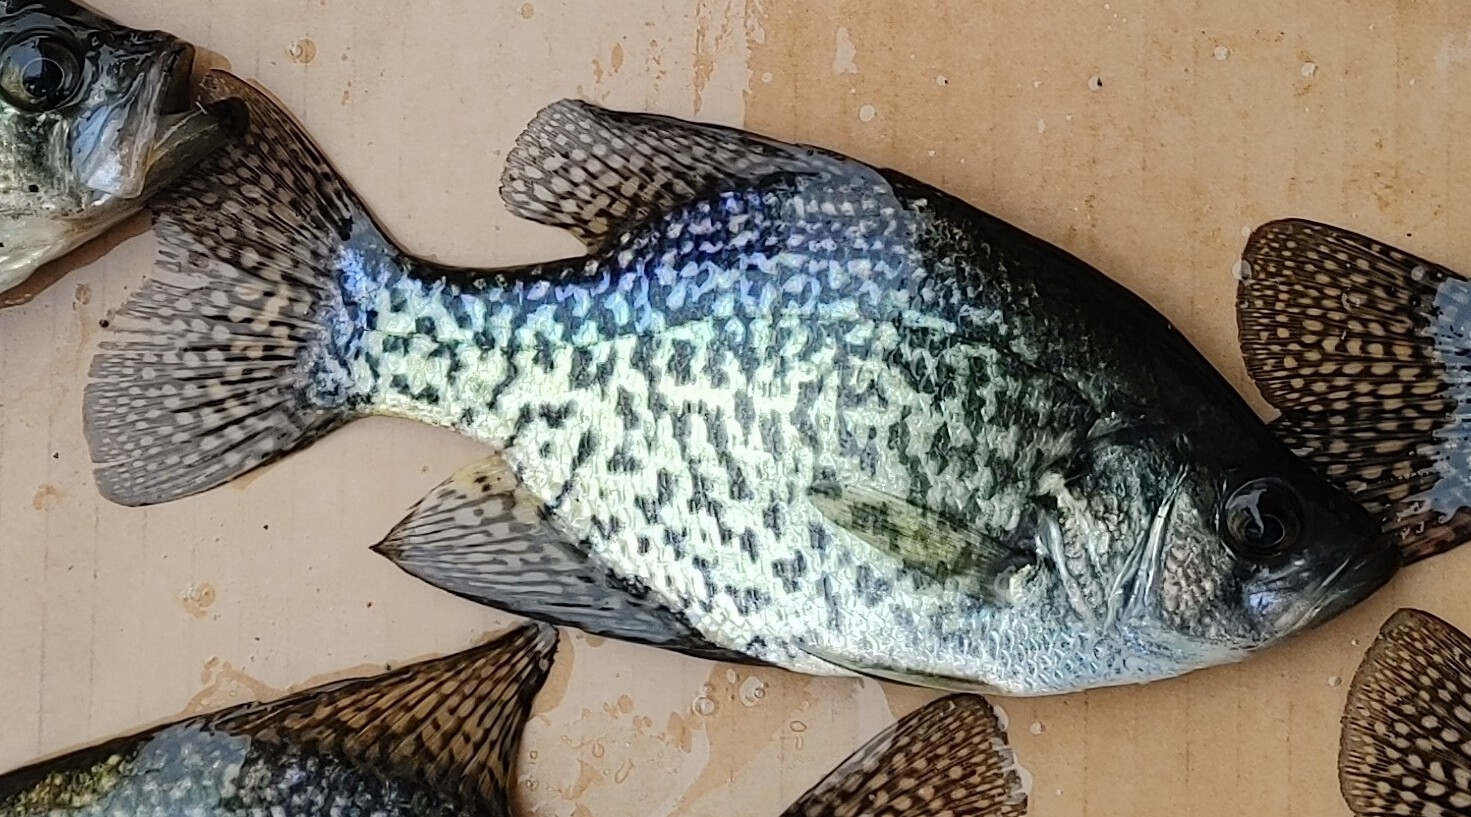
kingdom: Animalia
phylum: Chordata
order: Perciformes
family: Centrarchidae
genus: Pomoxis
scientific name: Pomoxis nigromaculatus
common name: Black crappie
